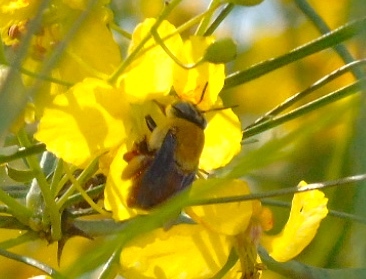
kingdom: Animalia
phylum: Arthropoda
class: Insecta
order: Hymenoptera
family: Apidae
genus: Centris
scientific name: Centris eurypatana
